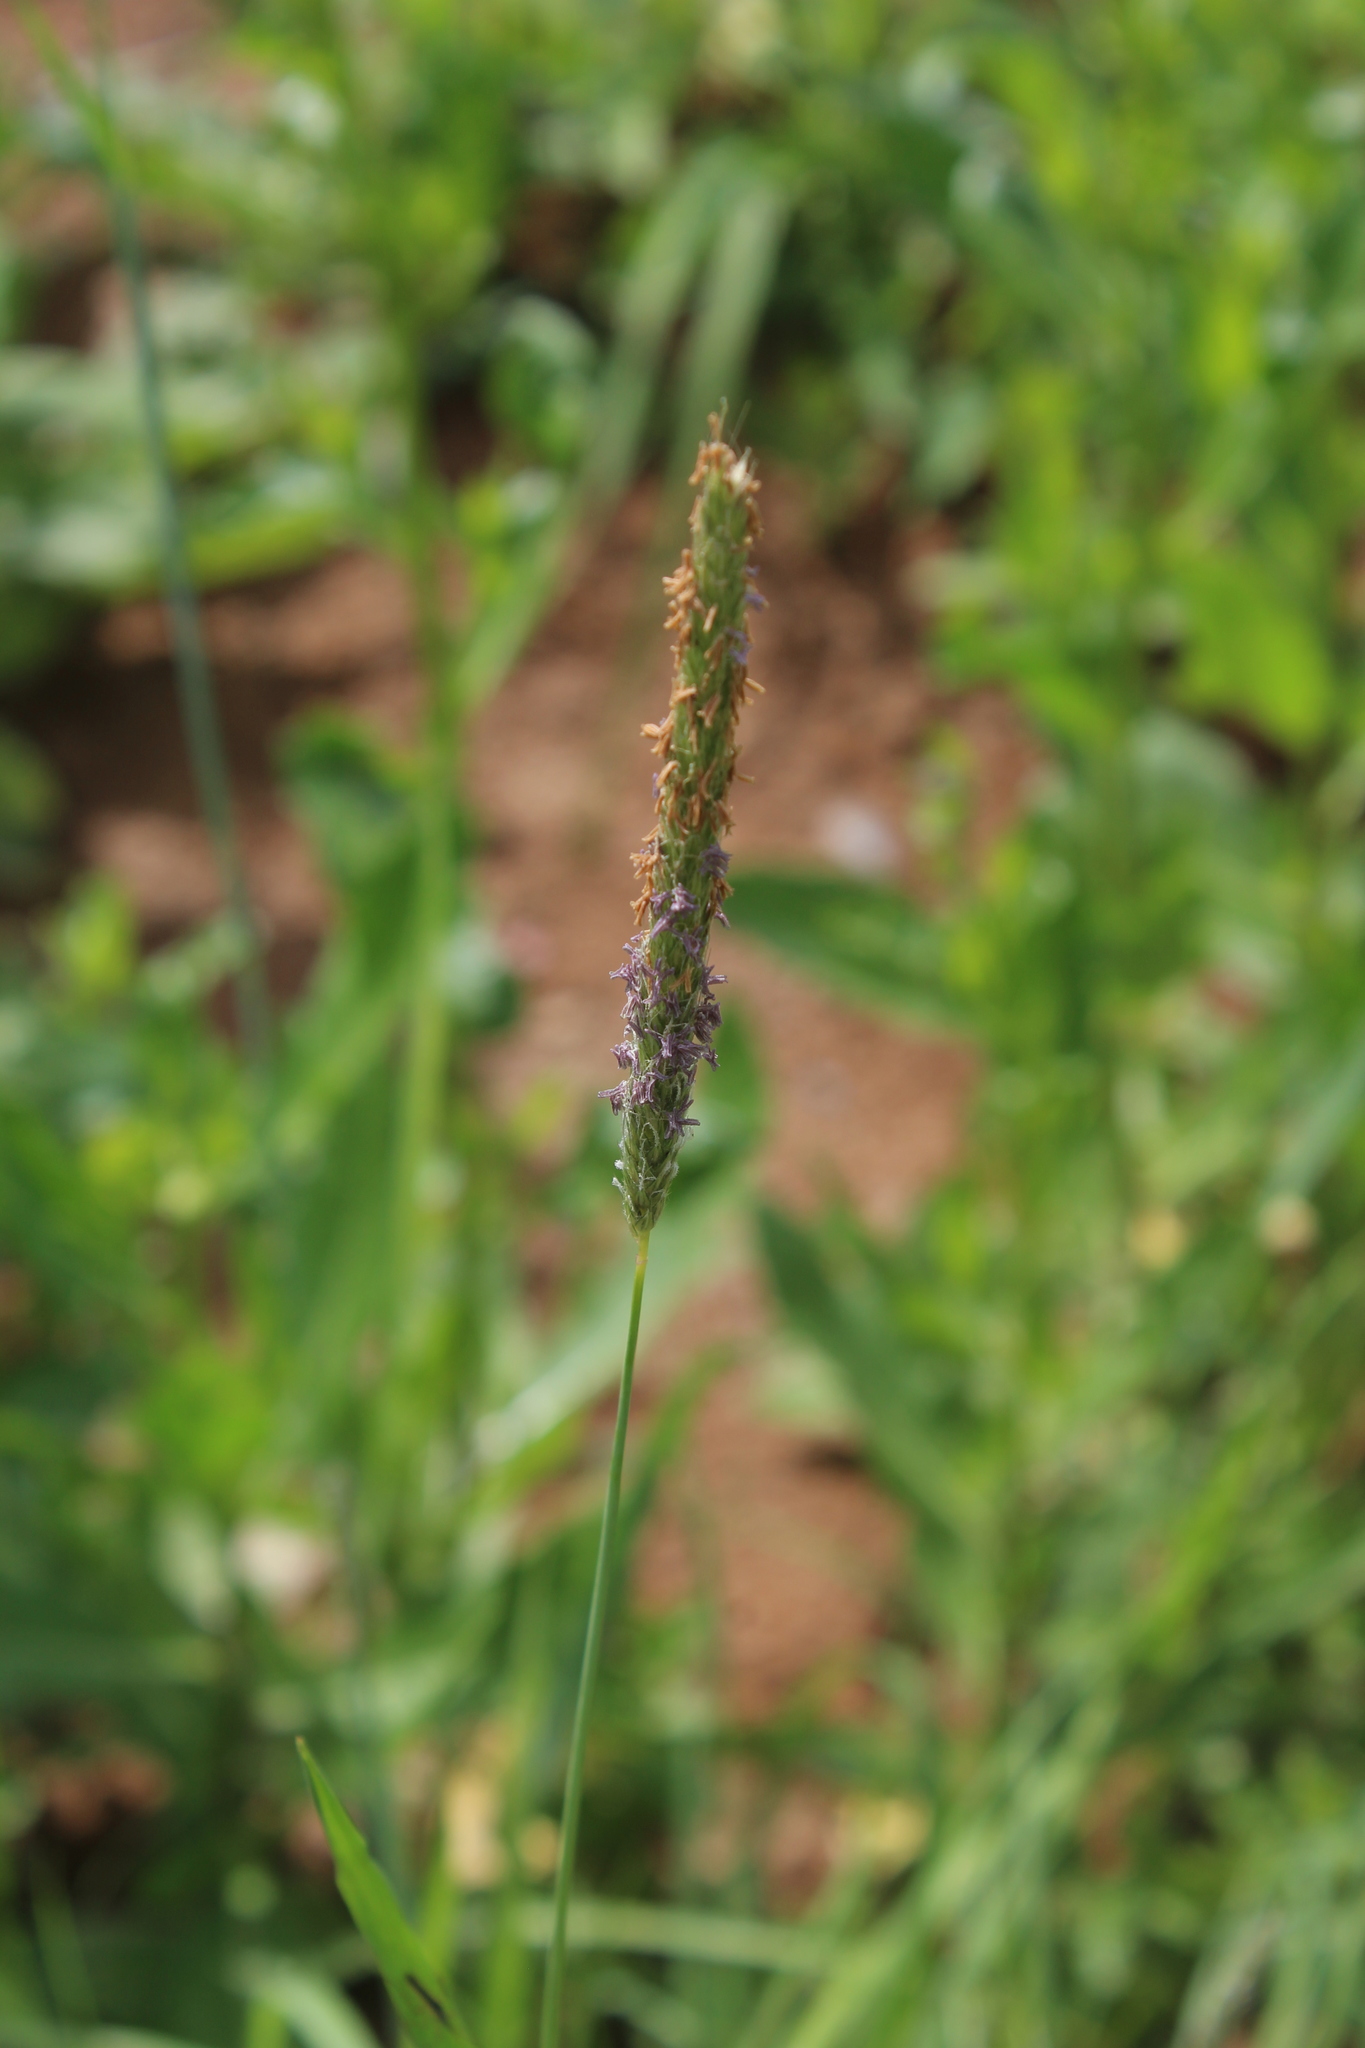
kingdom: Plantae
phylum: Tracheophyta
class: Liliopsida
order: Poales
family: Poaceae
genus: Alopecurus
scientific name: Alopecurus pratensis
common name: Meadow foxtail
